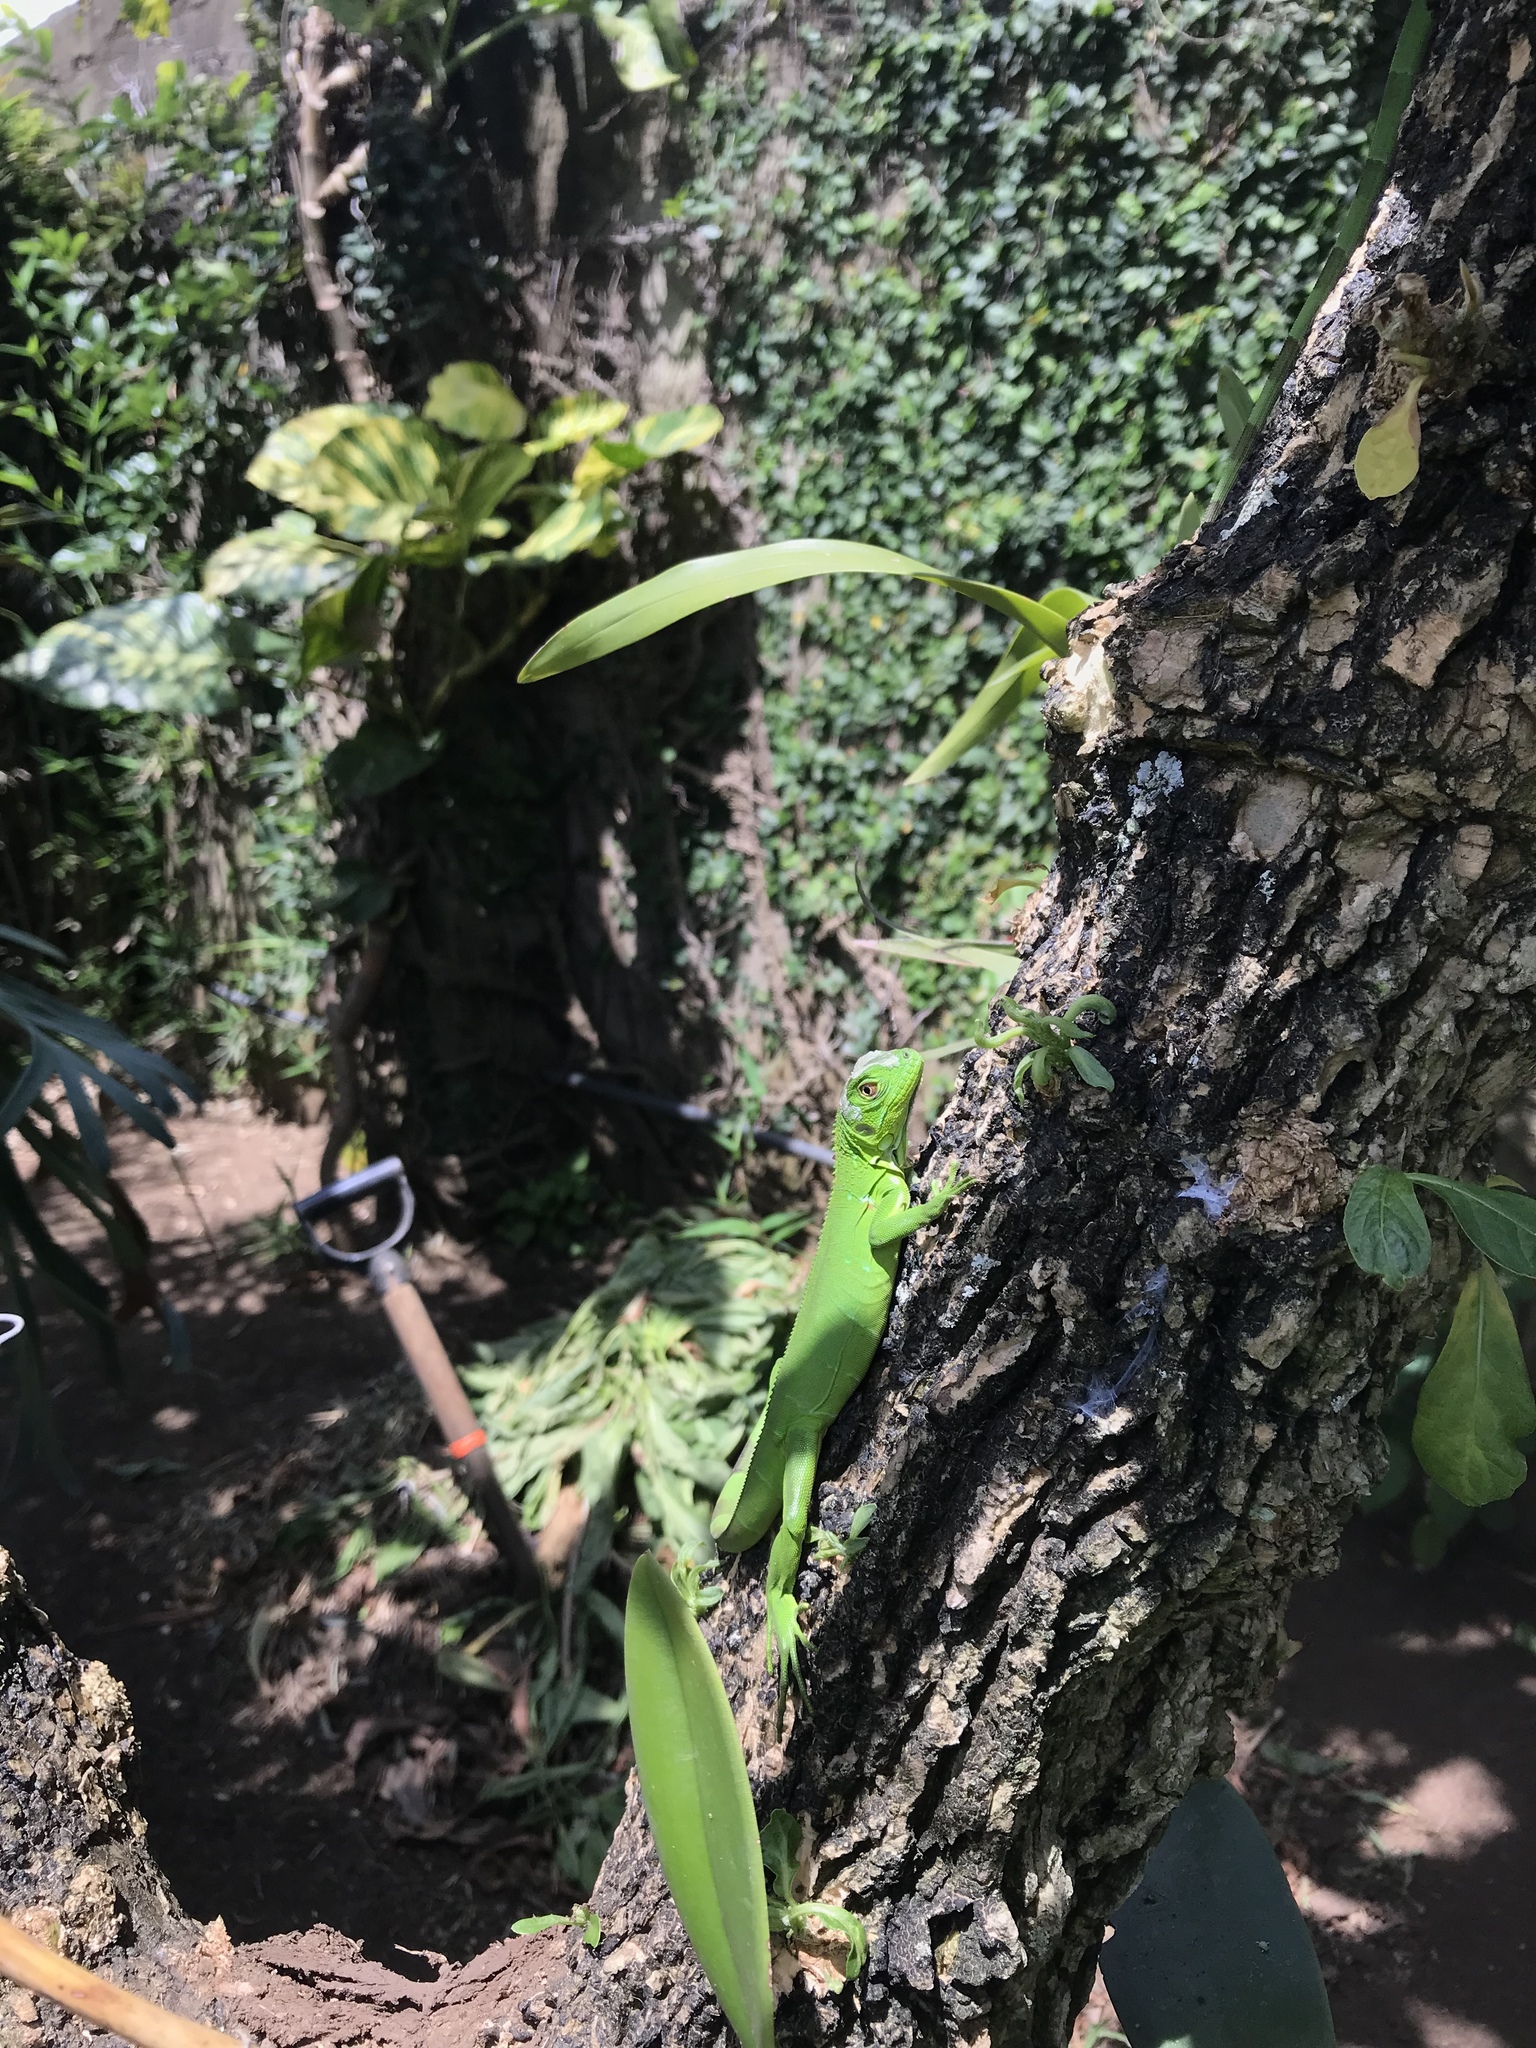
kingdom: Animalia
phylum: Chordata
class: Squamata
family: Iguanidae
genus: Iguana
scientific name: Iguana iguana
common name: Green iguana
